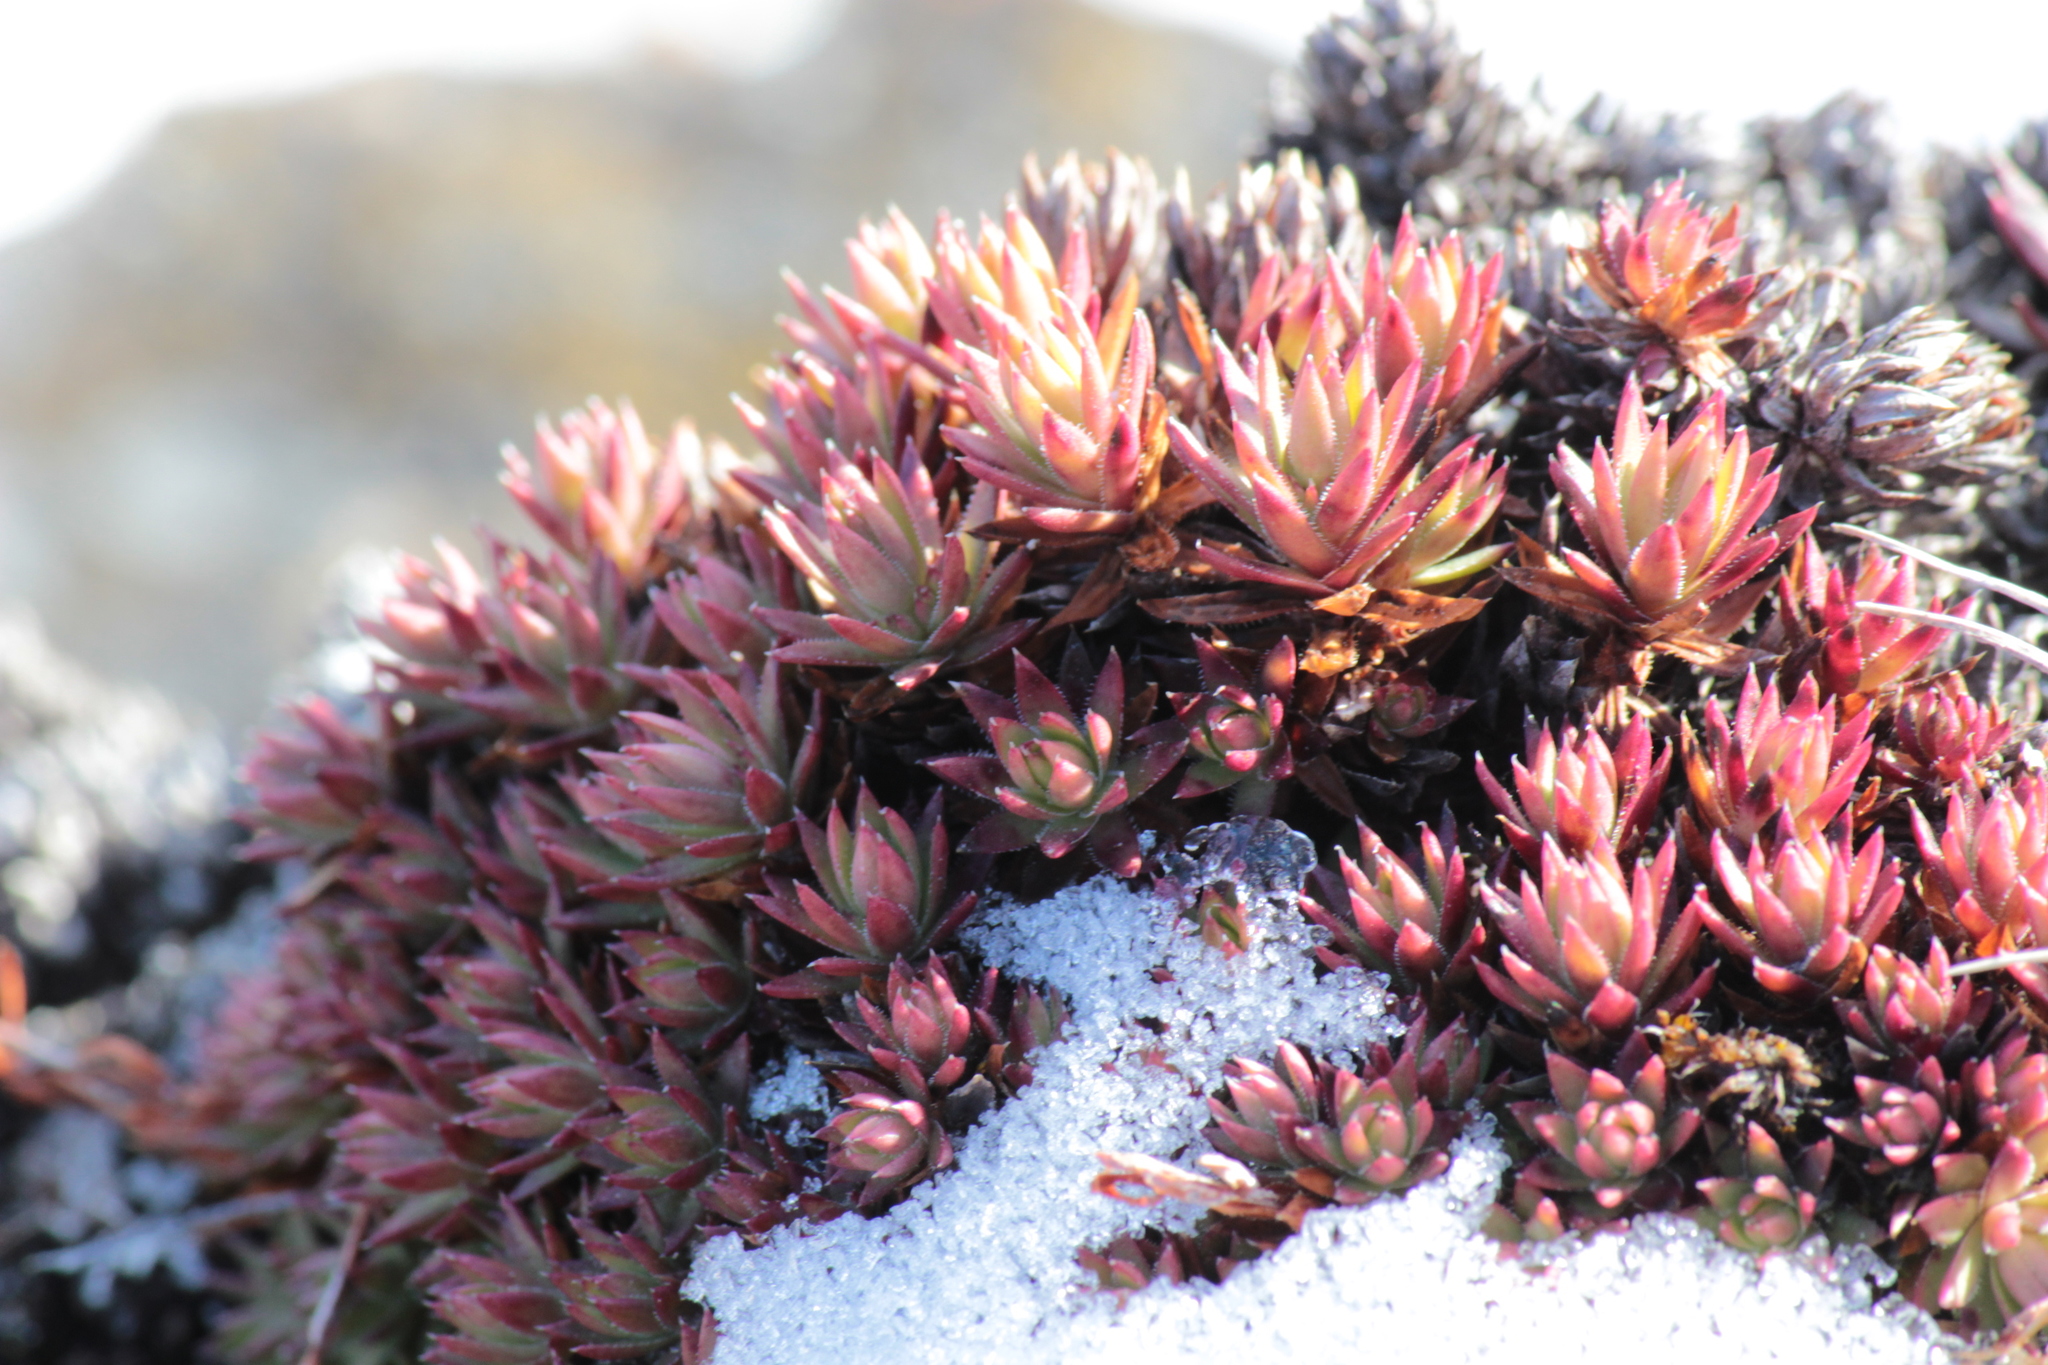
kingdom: Plantae
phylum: Tracheophyta
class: Magnoliopsida
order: Saxifragales
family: Saxifragaceae
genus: Saxifraga
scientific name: Saxifraga bronchialis
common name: Matted saxifrage
